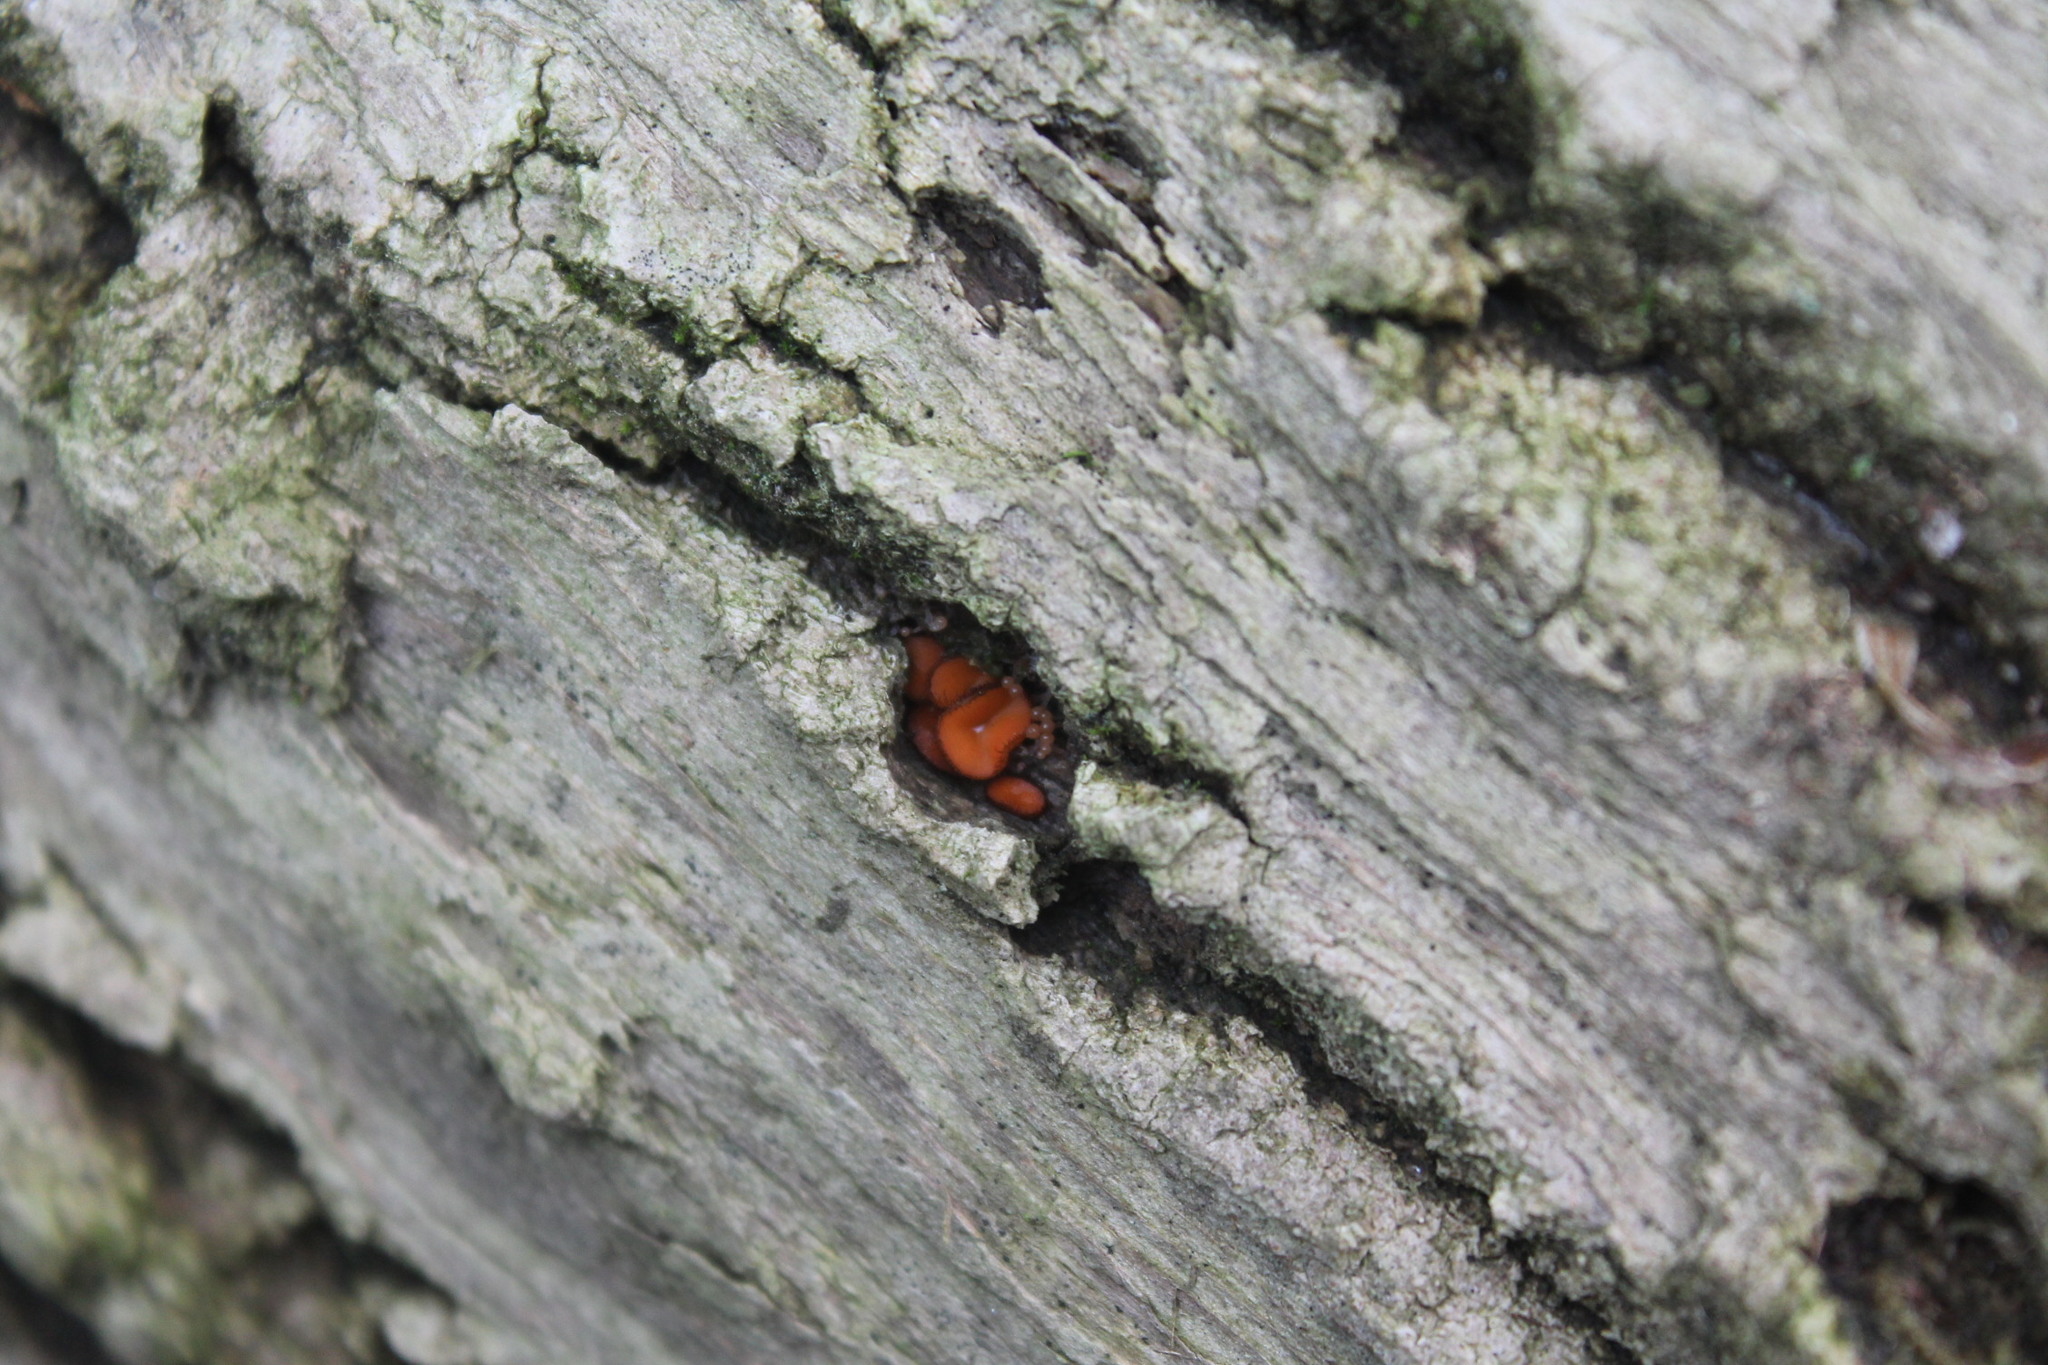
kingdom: Fungi
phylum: Ascomycota
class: Pezizomycetes
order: Pezizales
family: Pyronemataceae
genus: Scutellinia
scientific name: Scutellinia scutellata
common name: Common eyelash
